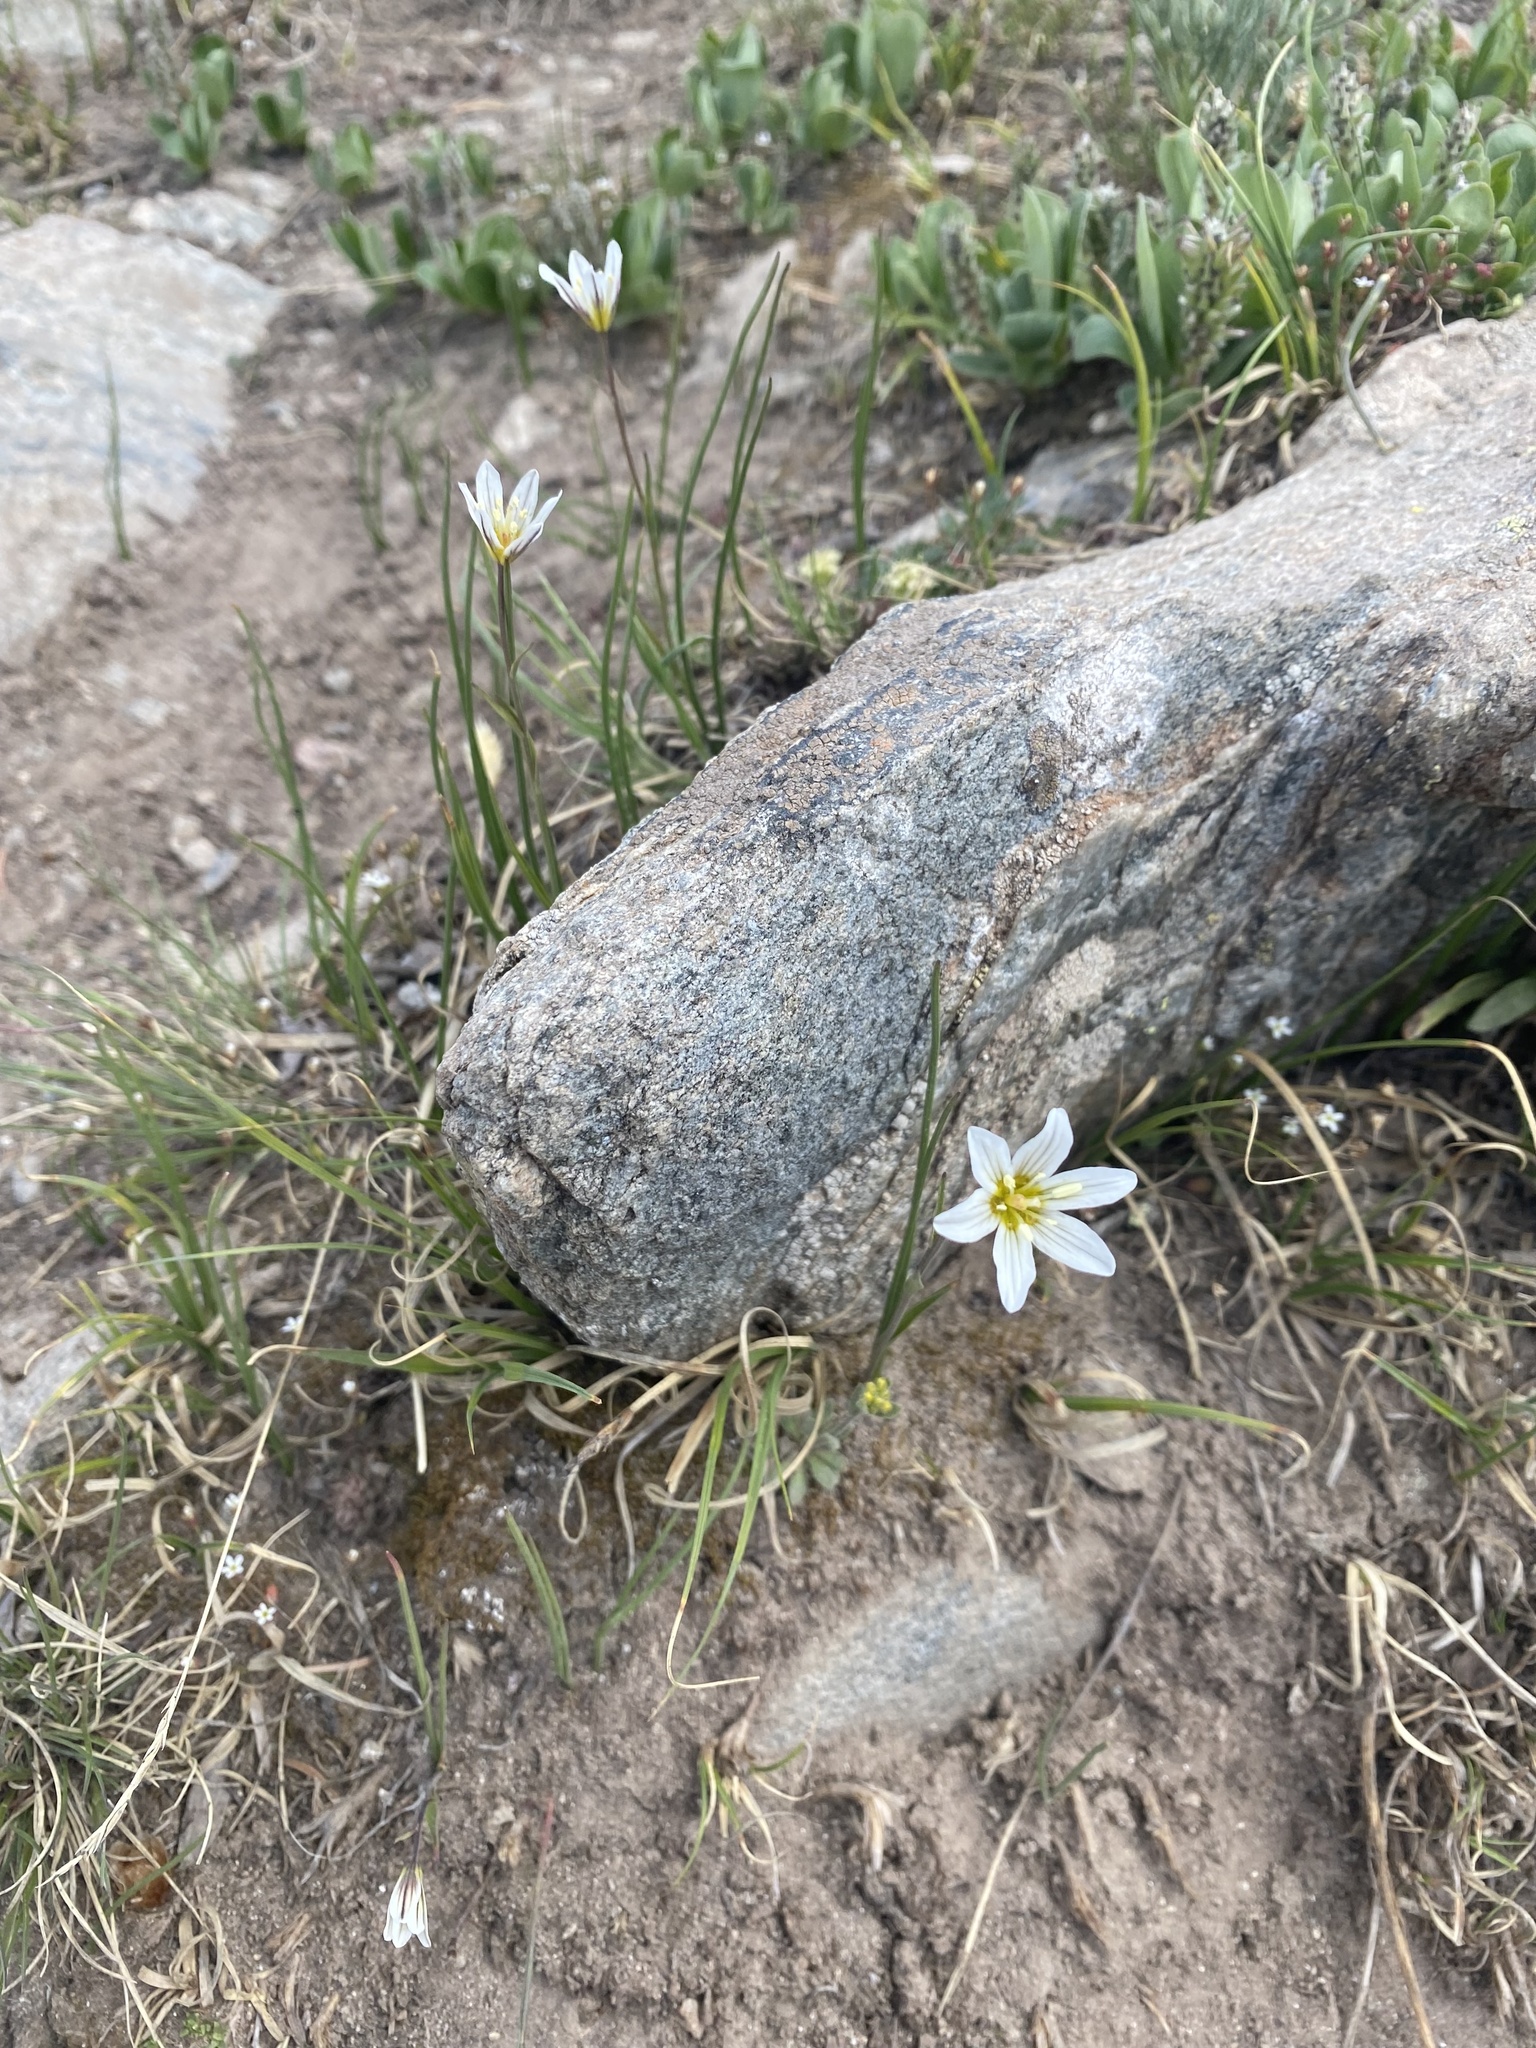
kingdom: Plantae
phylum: Tracheophyta
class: Liliopsida
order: Liliales
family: Liliaceae
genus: Gagea
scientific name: Gagea serotina
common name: Snowdon lily
